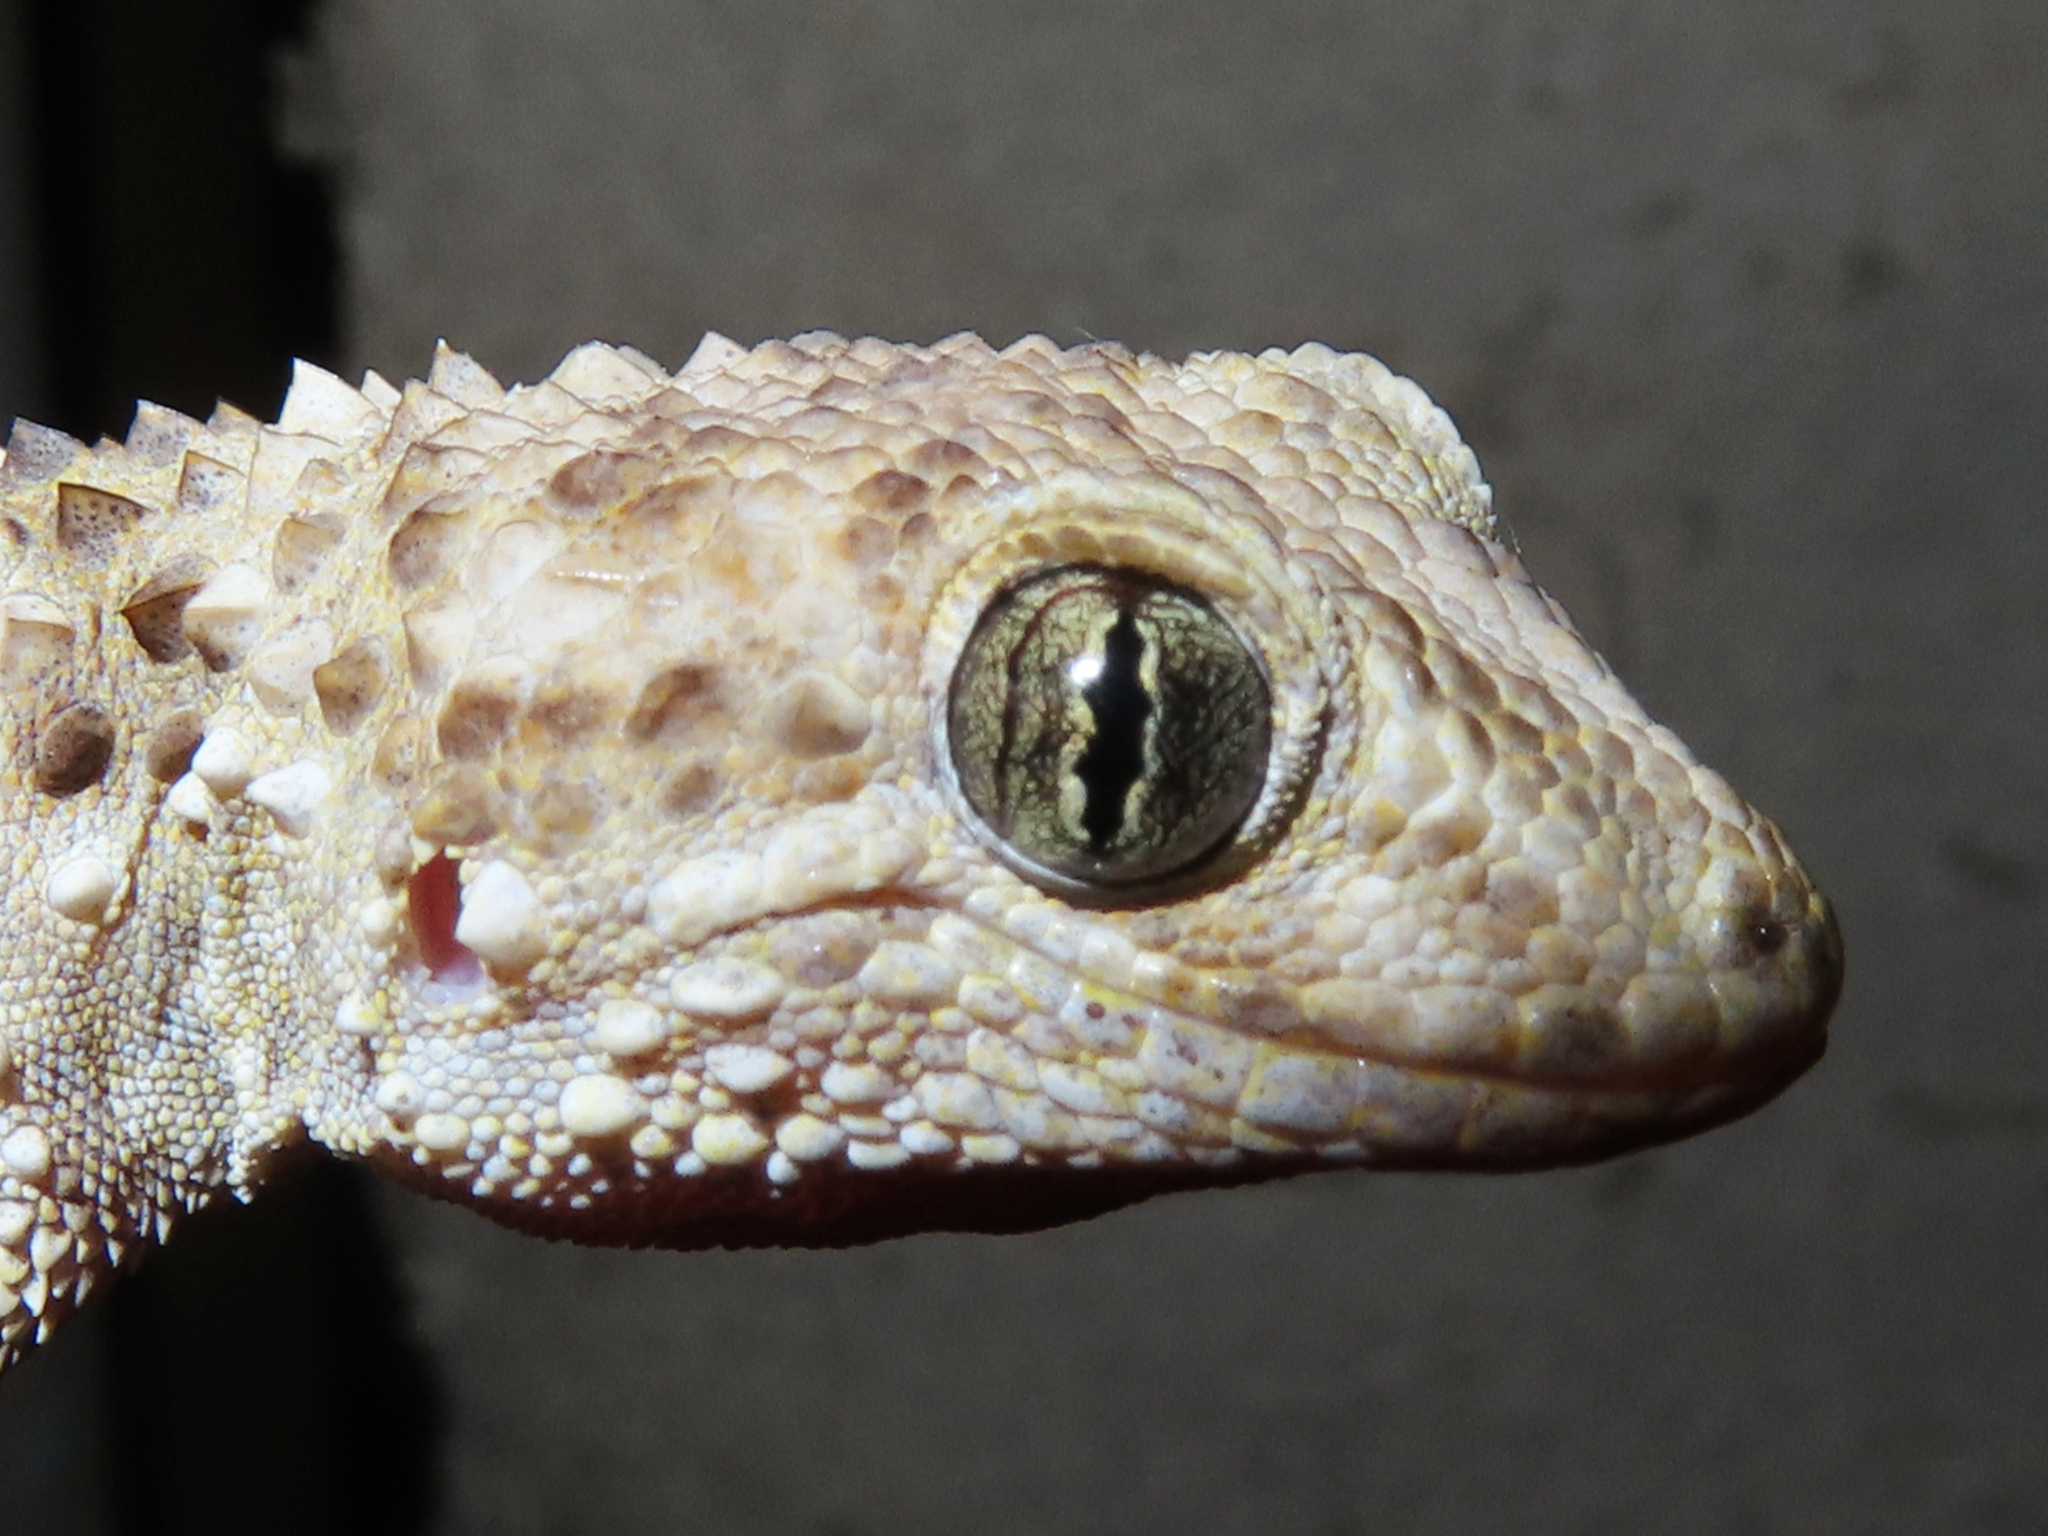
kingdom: Animalia
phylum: Chordata
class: Squamata
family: Gekkonidae
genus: Tenuidactylus
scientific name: Tenuidactylus caspius
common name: Caspian bent-toed gecko
